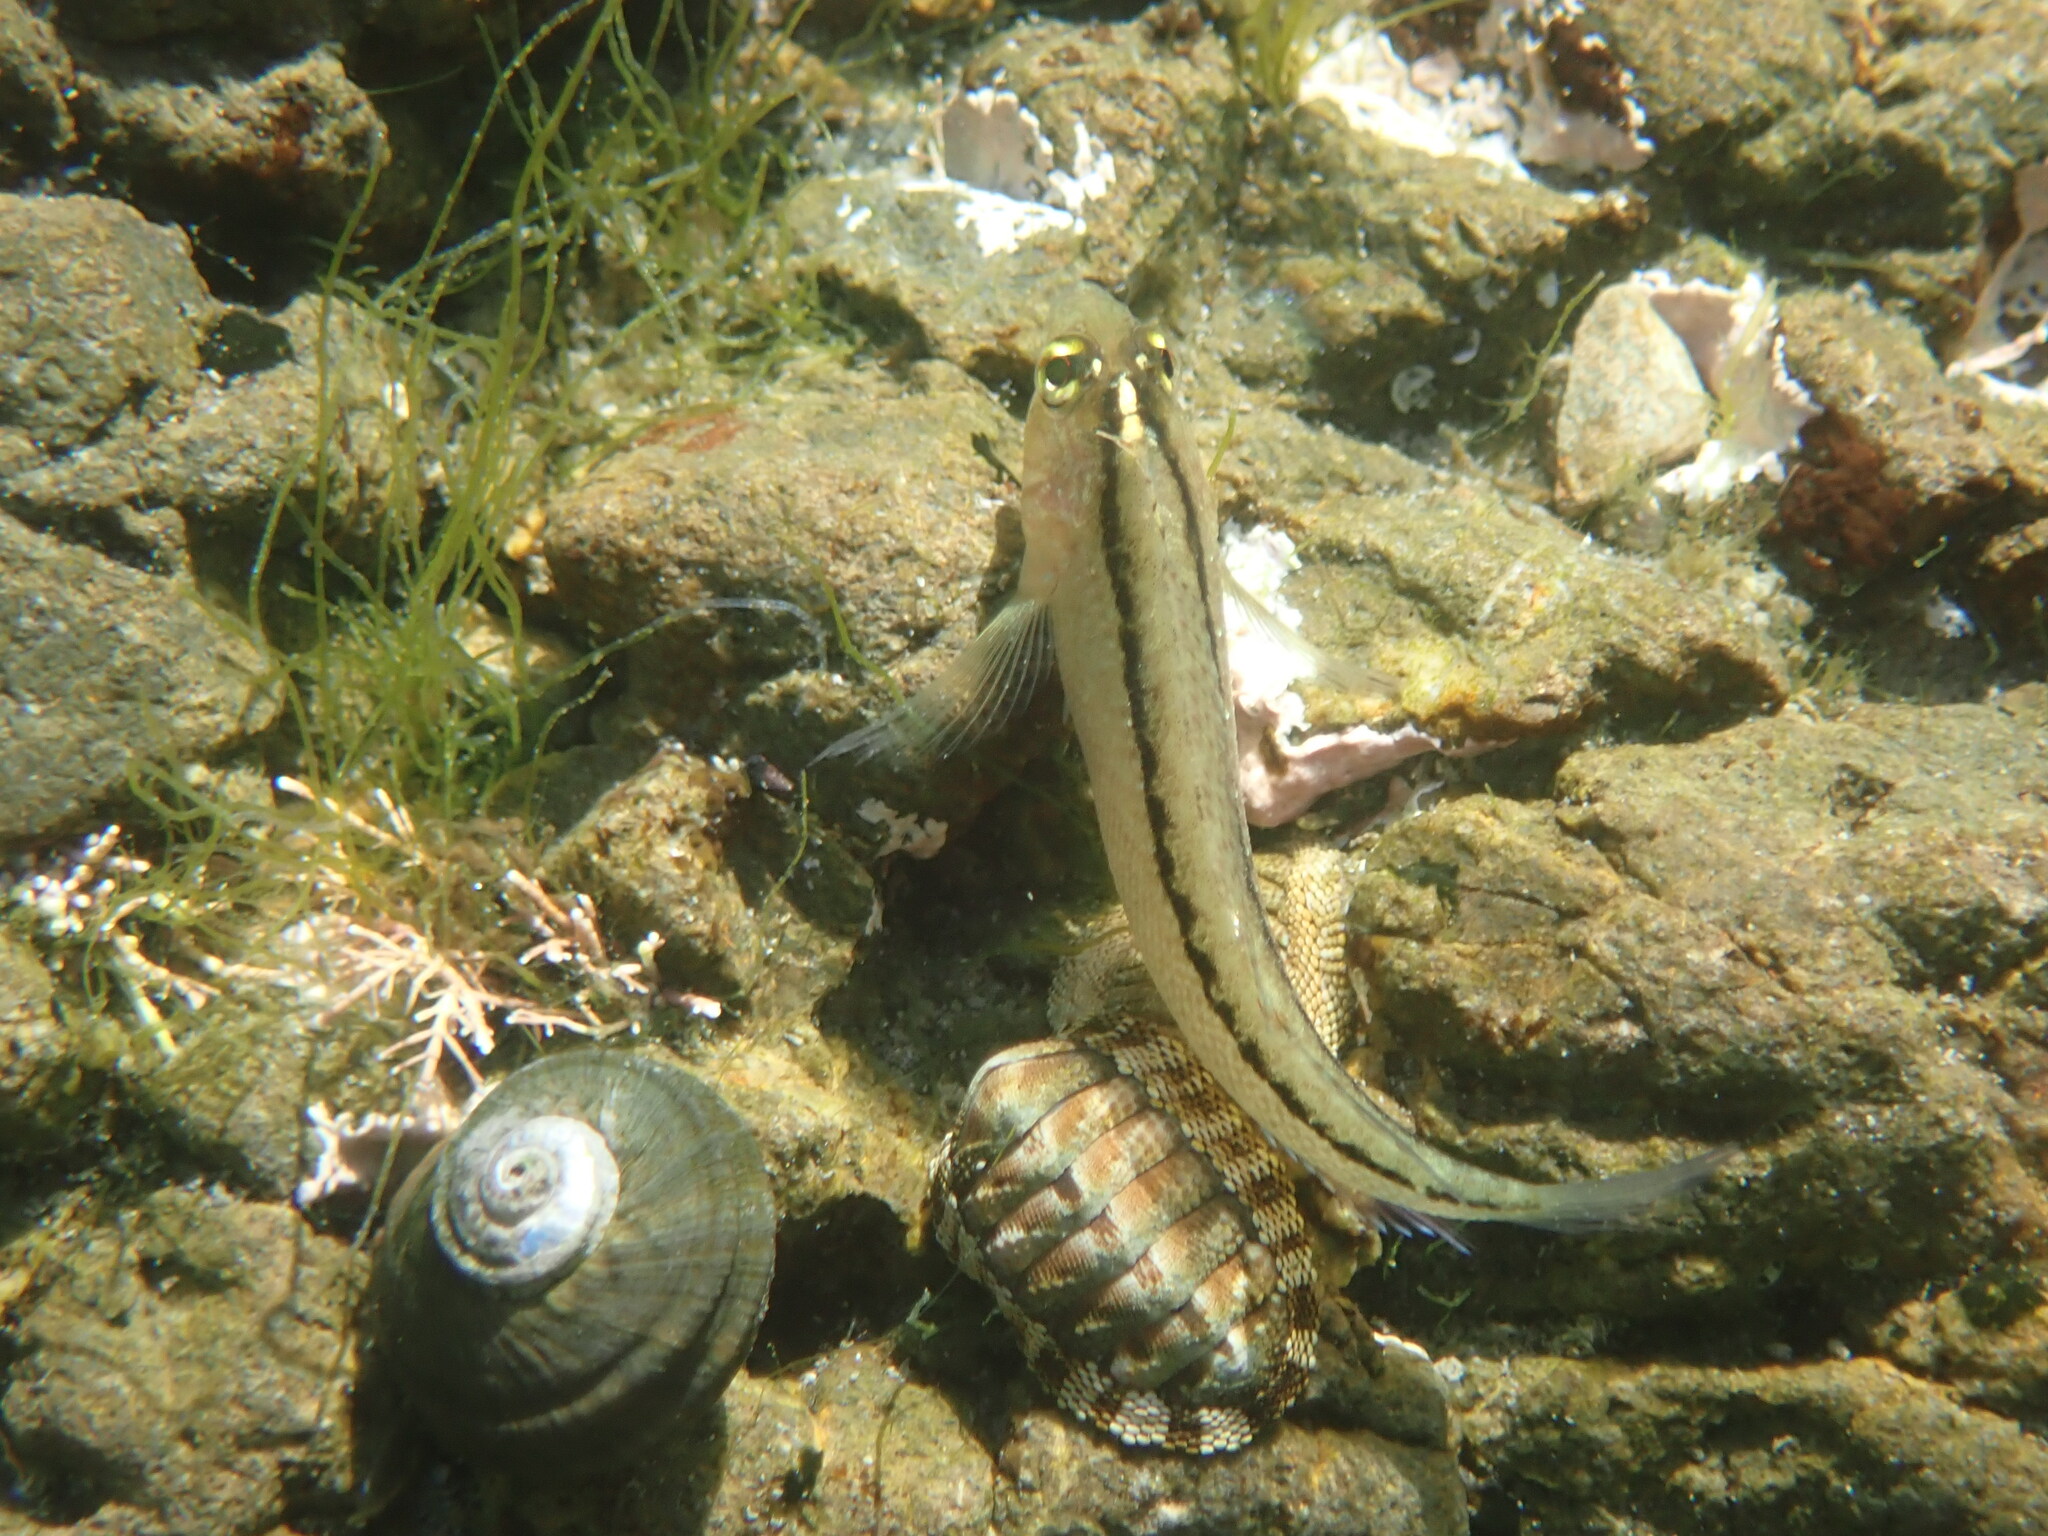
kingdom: Animalia
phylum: Chordata
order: Perciformes
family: Tripterygiidae
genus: Forsterygion
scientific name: Forsterygion lapillum
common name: Common triplefin
